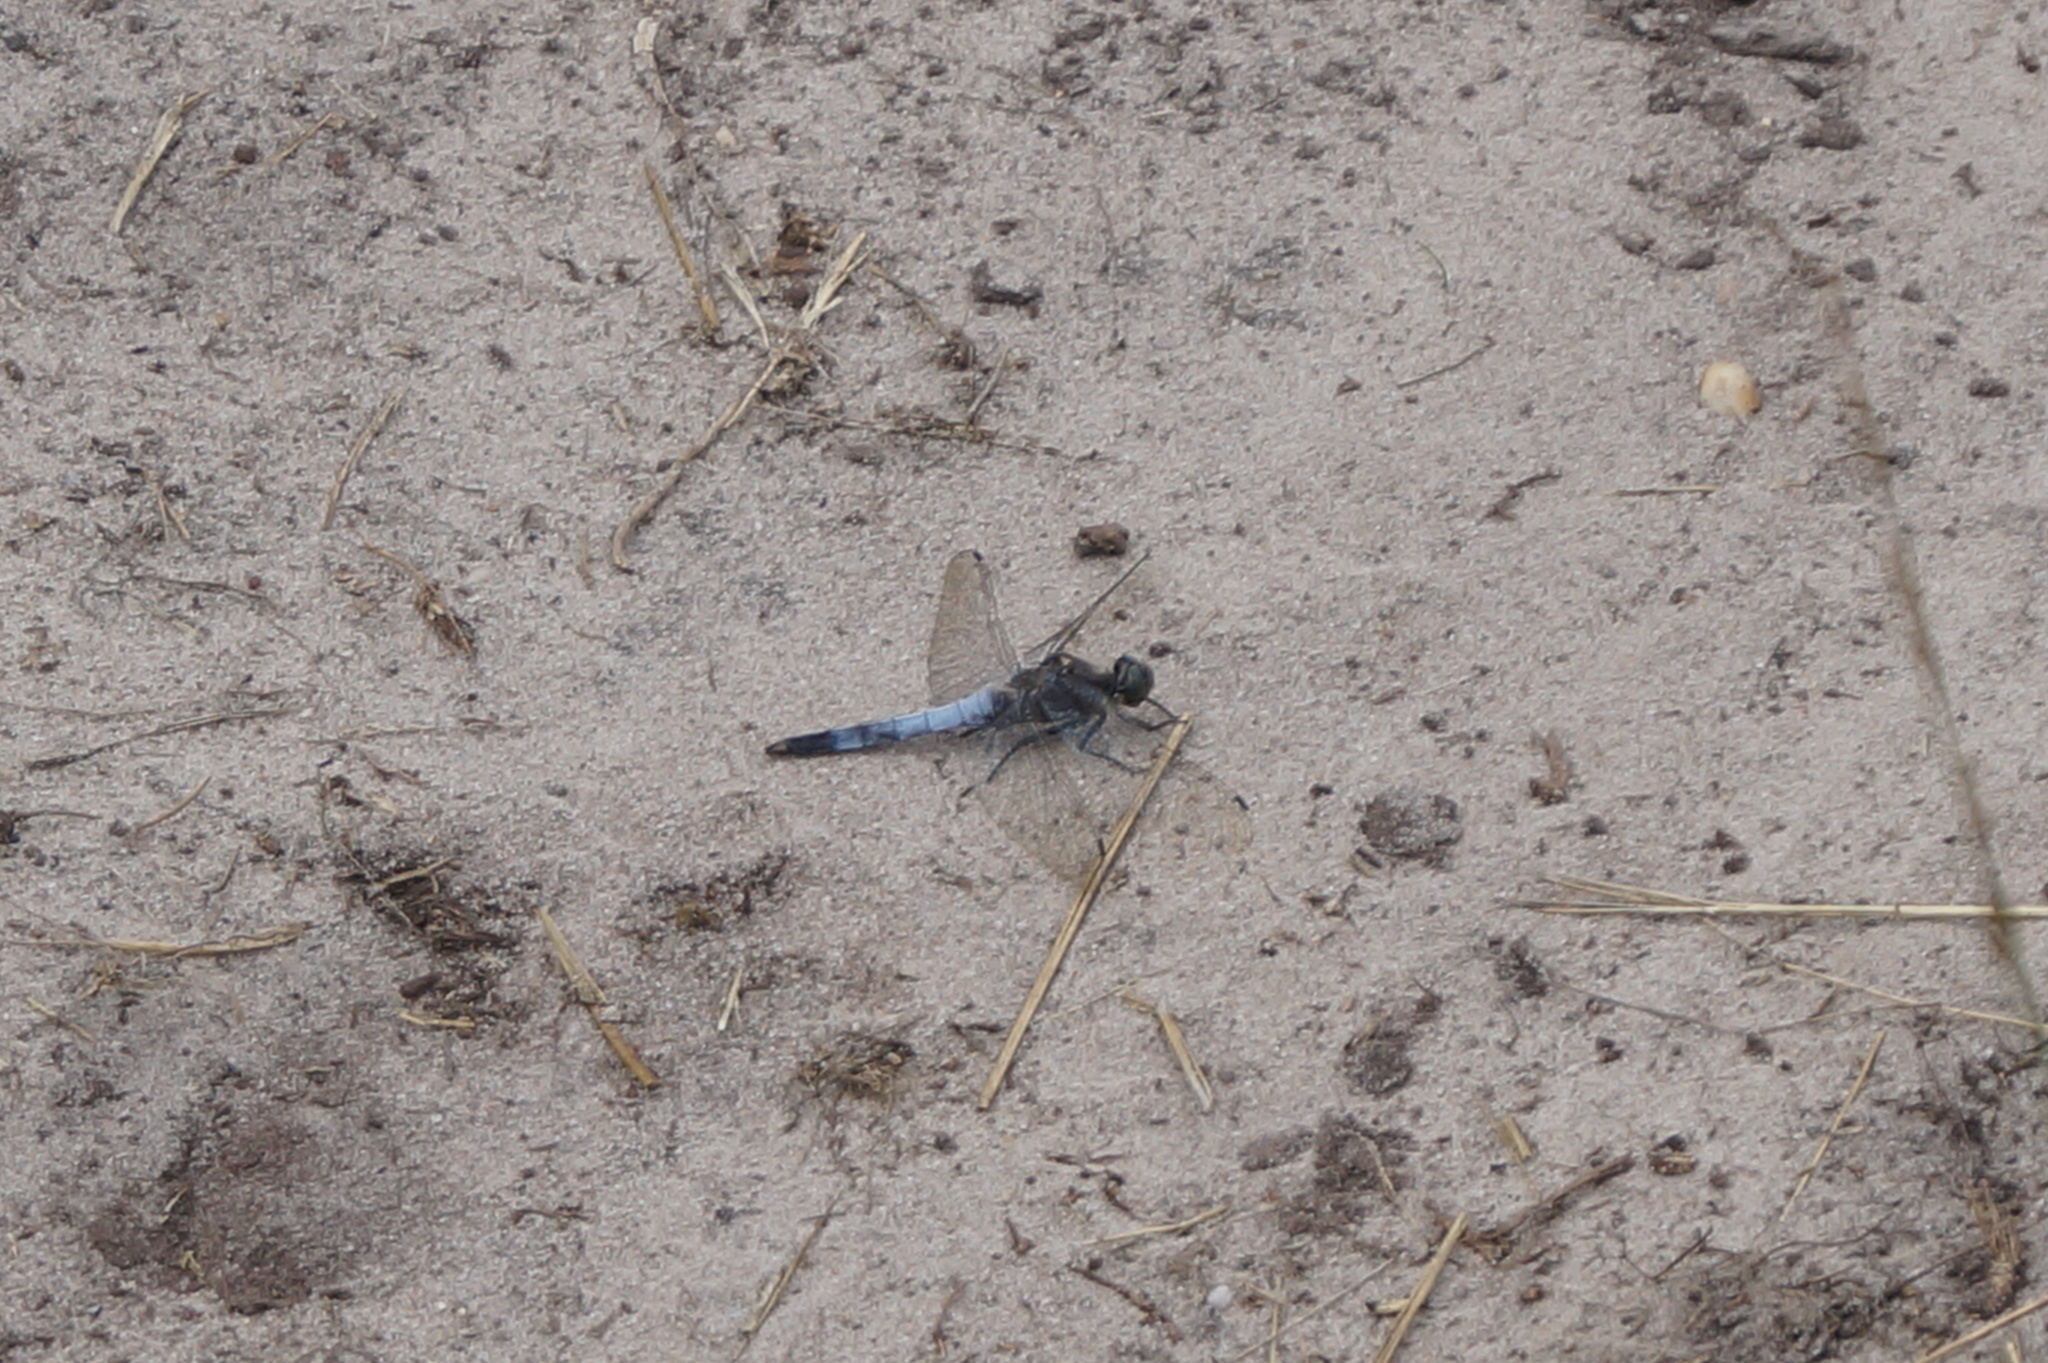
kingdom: Animalia
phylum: Arthropoda
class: Insecta
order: Odonata
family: Libellulidae
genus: Orthetrum
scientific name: Orthetrum cancellatum
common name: Black-tailed skimmer
